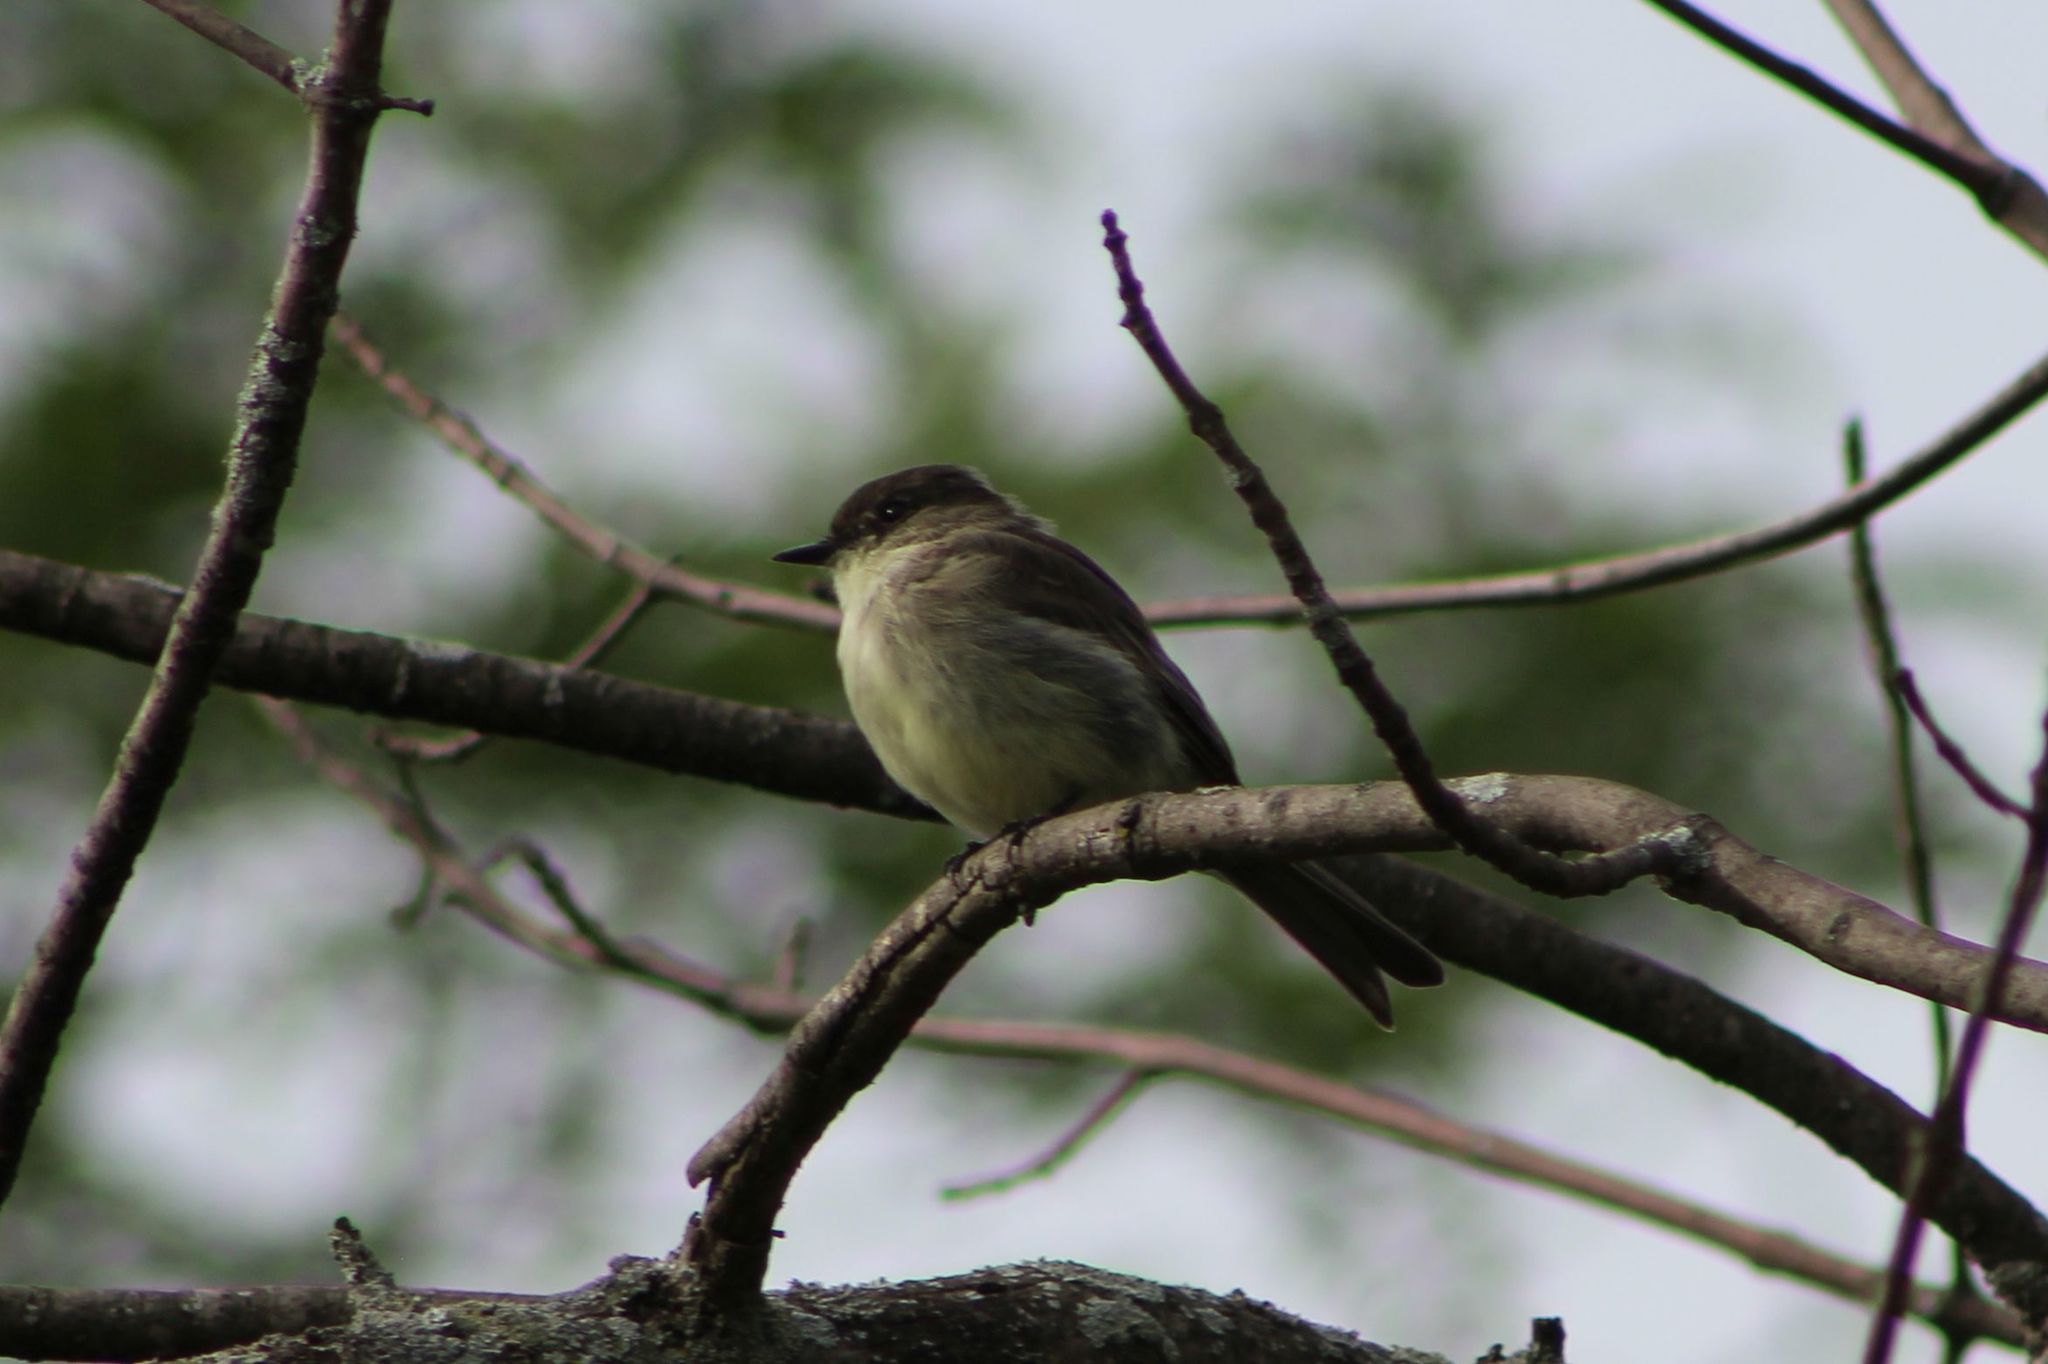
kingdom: Animalia
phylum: Chordata
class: Aves
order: Passeriformes
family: Tyrannidae
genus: Sayornis
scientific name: Sayornis phoebe
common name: Eastern phoebe
